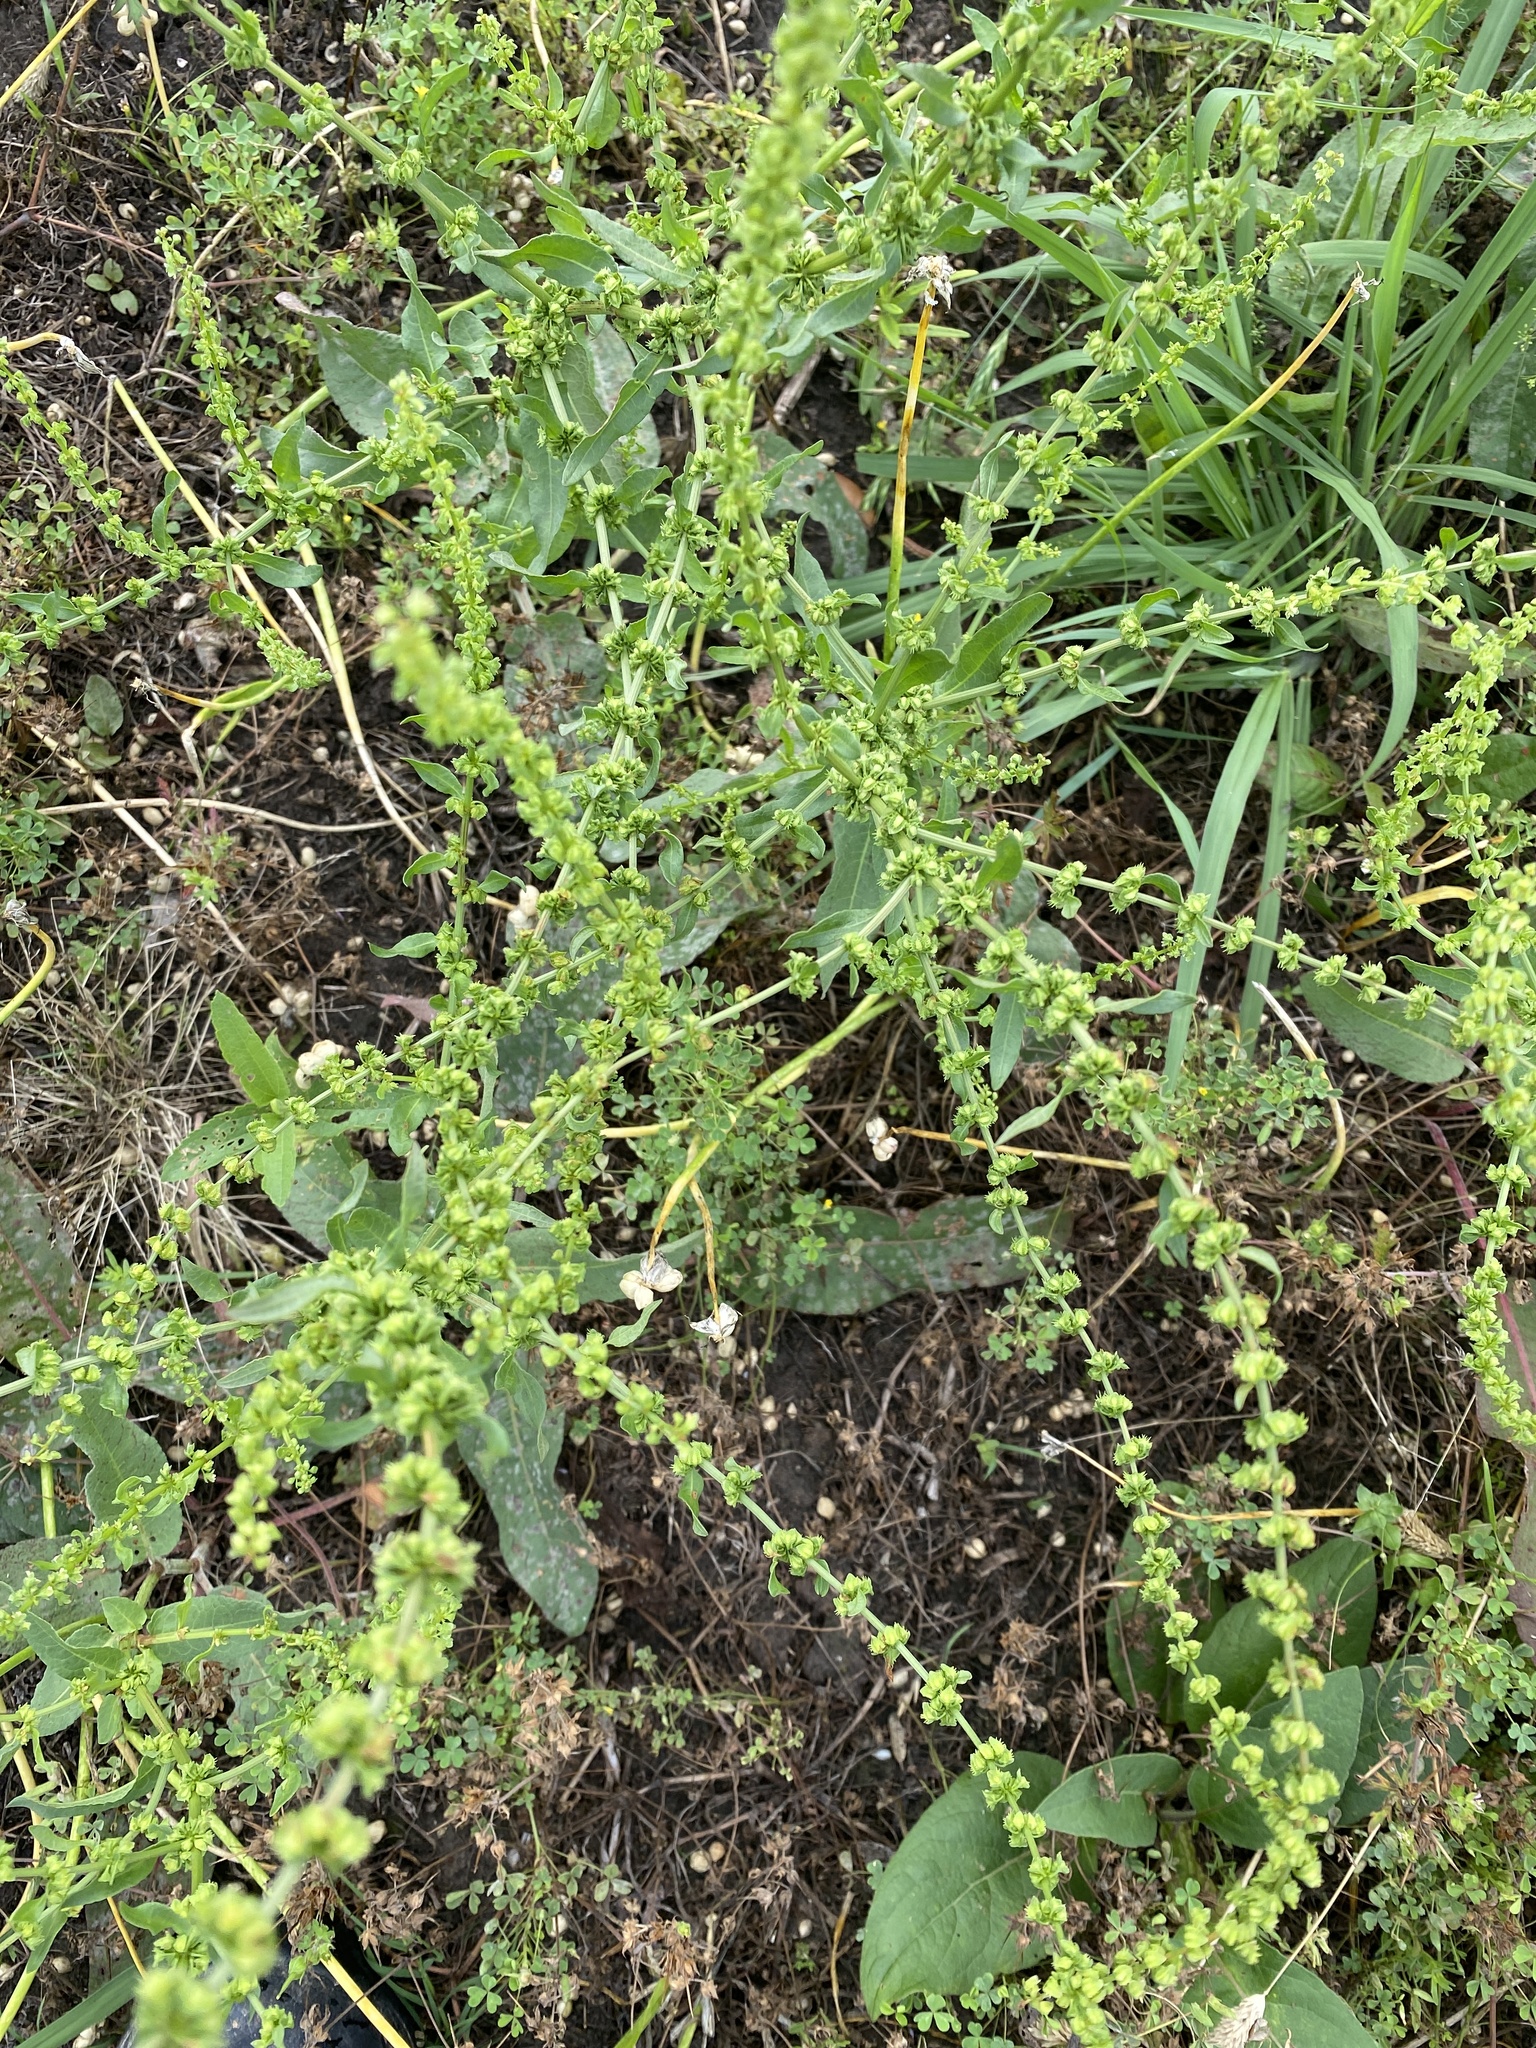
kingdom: Plantae
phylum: Tracheophyta
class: Magnoliopsida
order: Caryophyllales
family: Polygonaceae
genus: Rumex
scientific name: Rumex crispus
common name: Curled dock
